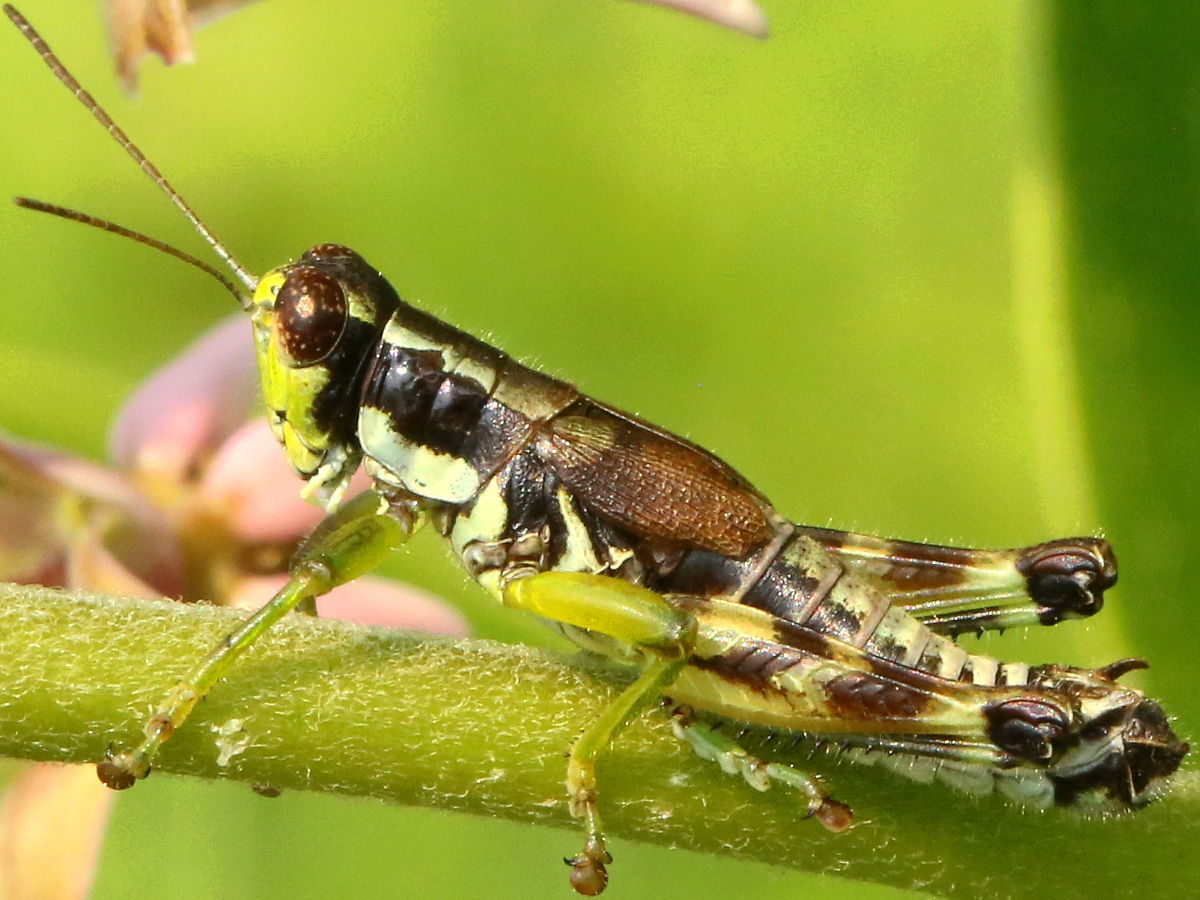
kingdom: Animalia
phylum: Arthropoda
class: Insecta
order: Orthoptera
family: Acrididae
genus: Melanoplus
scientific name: Melanoplus viridipes
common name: Green-legged locust
